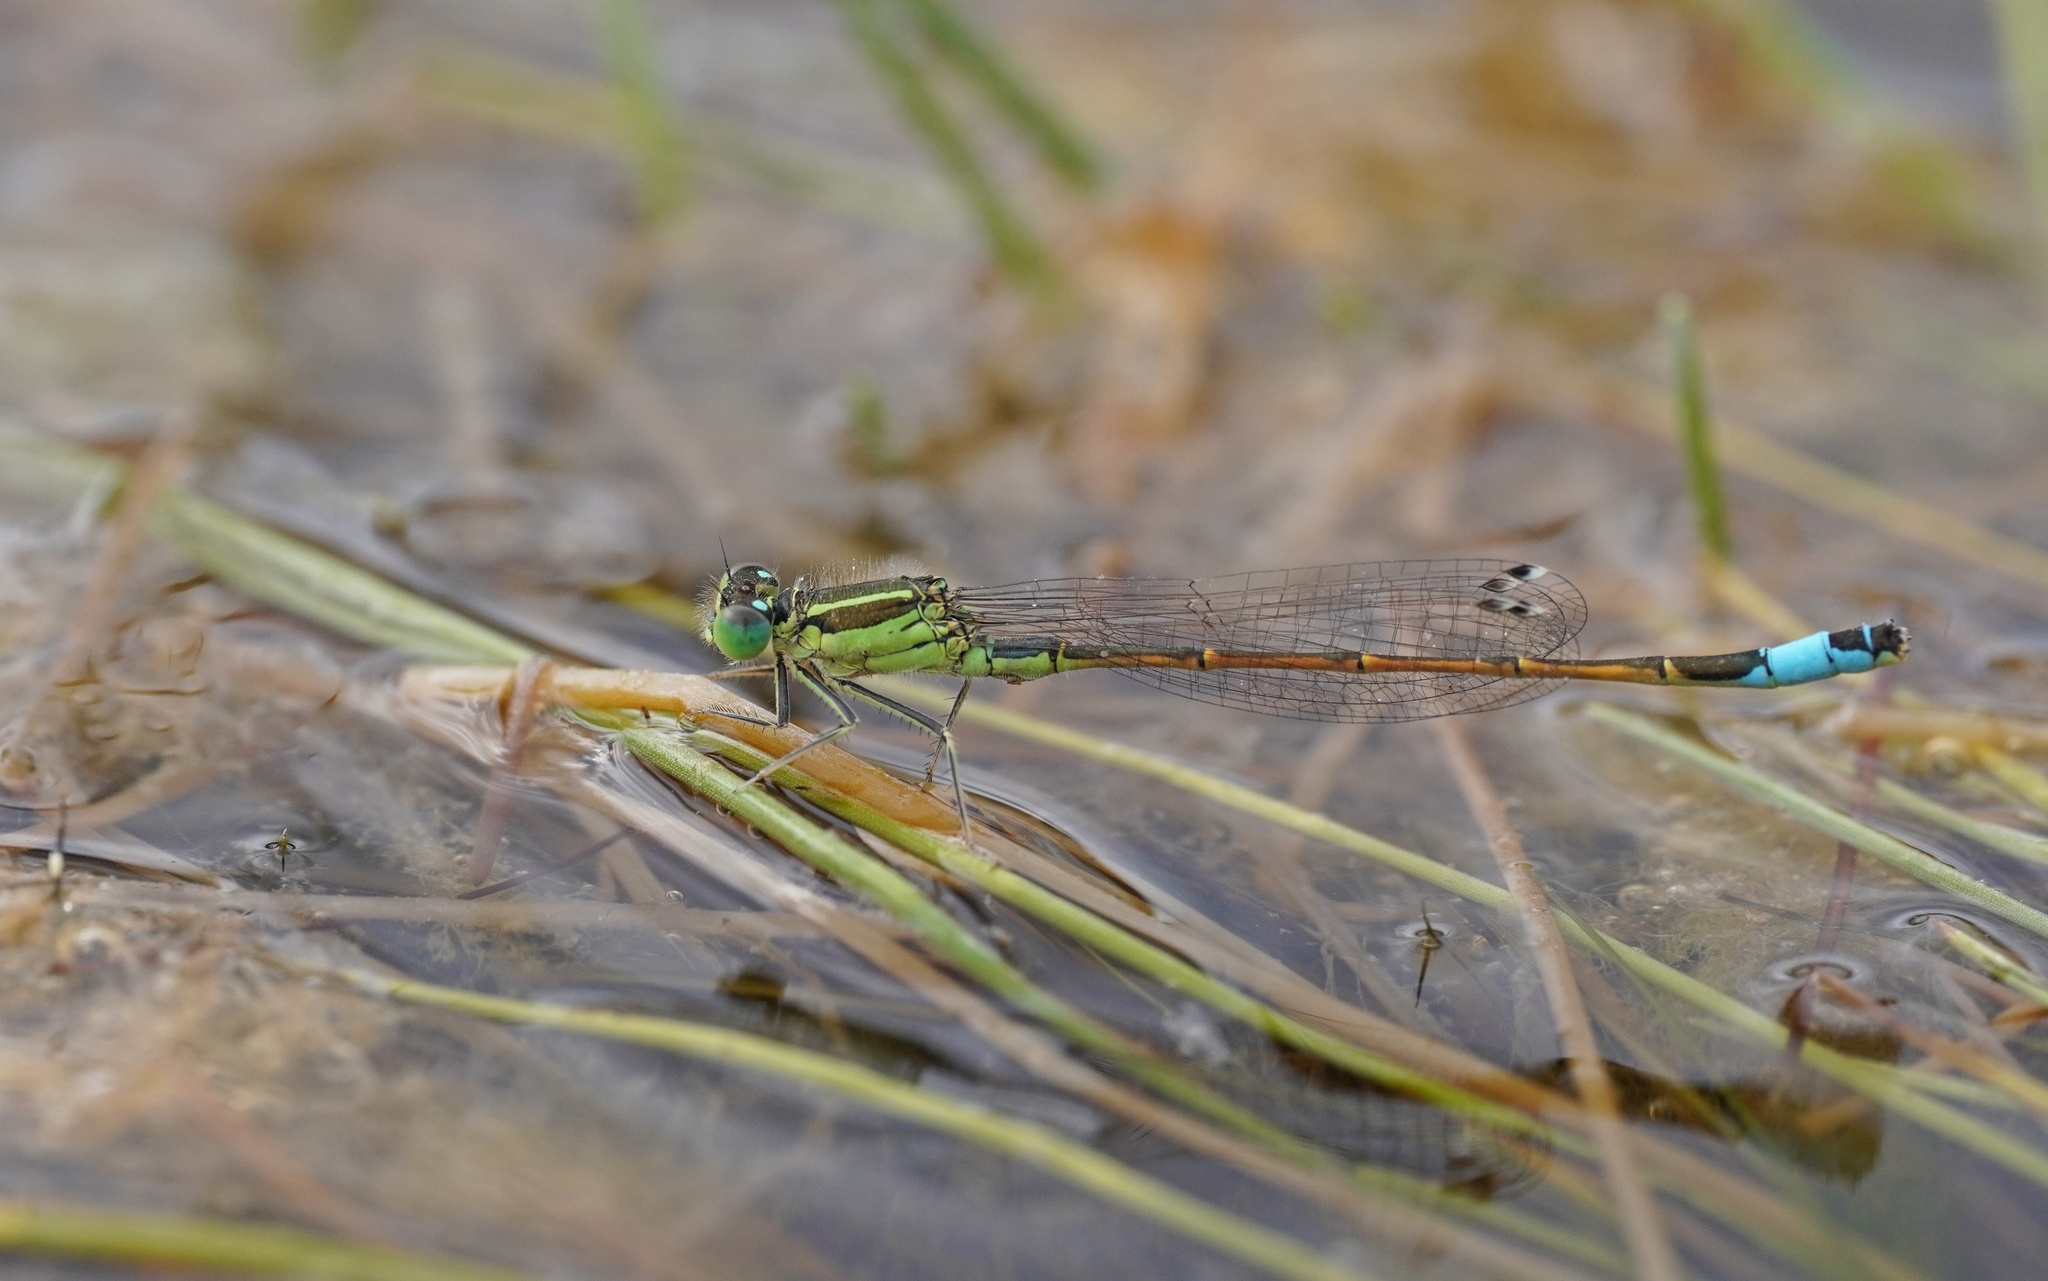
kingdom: Animalia
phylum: Arthropoda
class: Insecta
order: Odonata
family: Coenagrionidae
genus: Ischnura
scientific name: Ischnura saharensis
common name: Sahara bluetail
